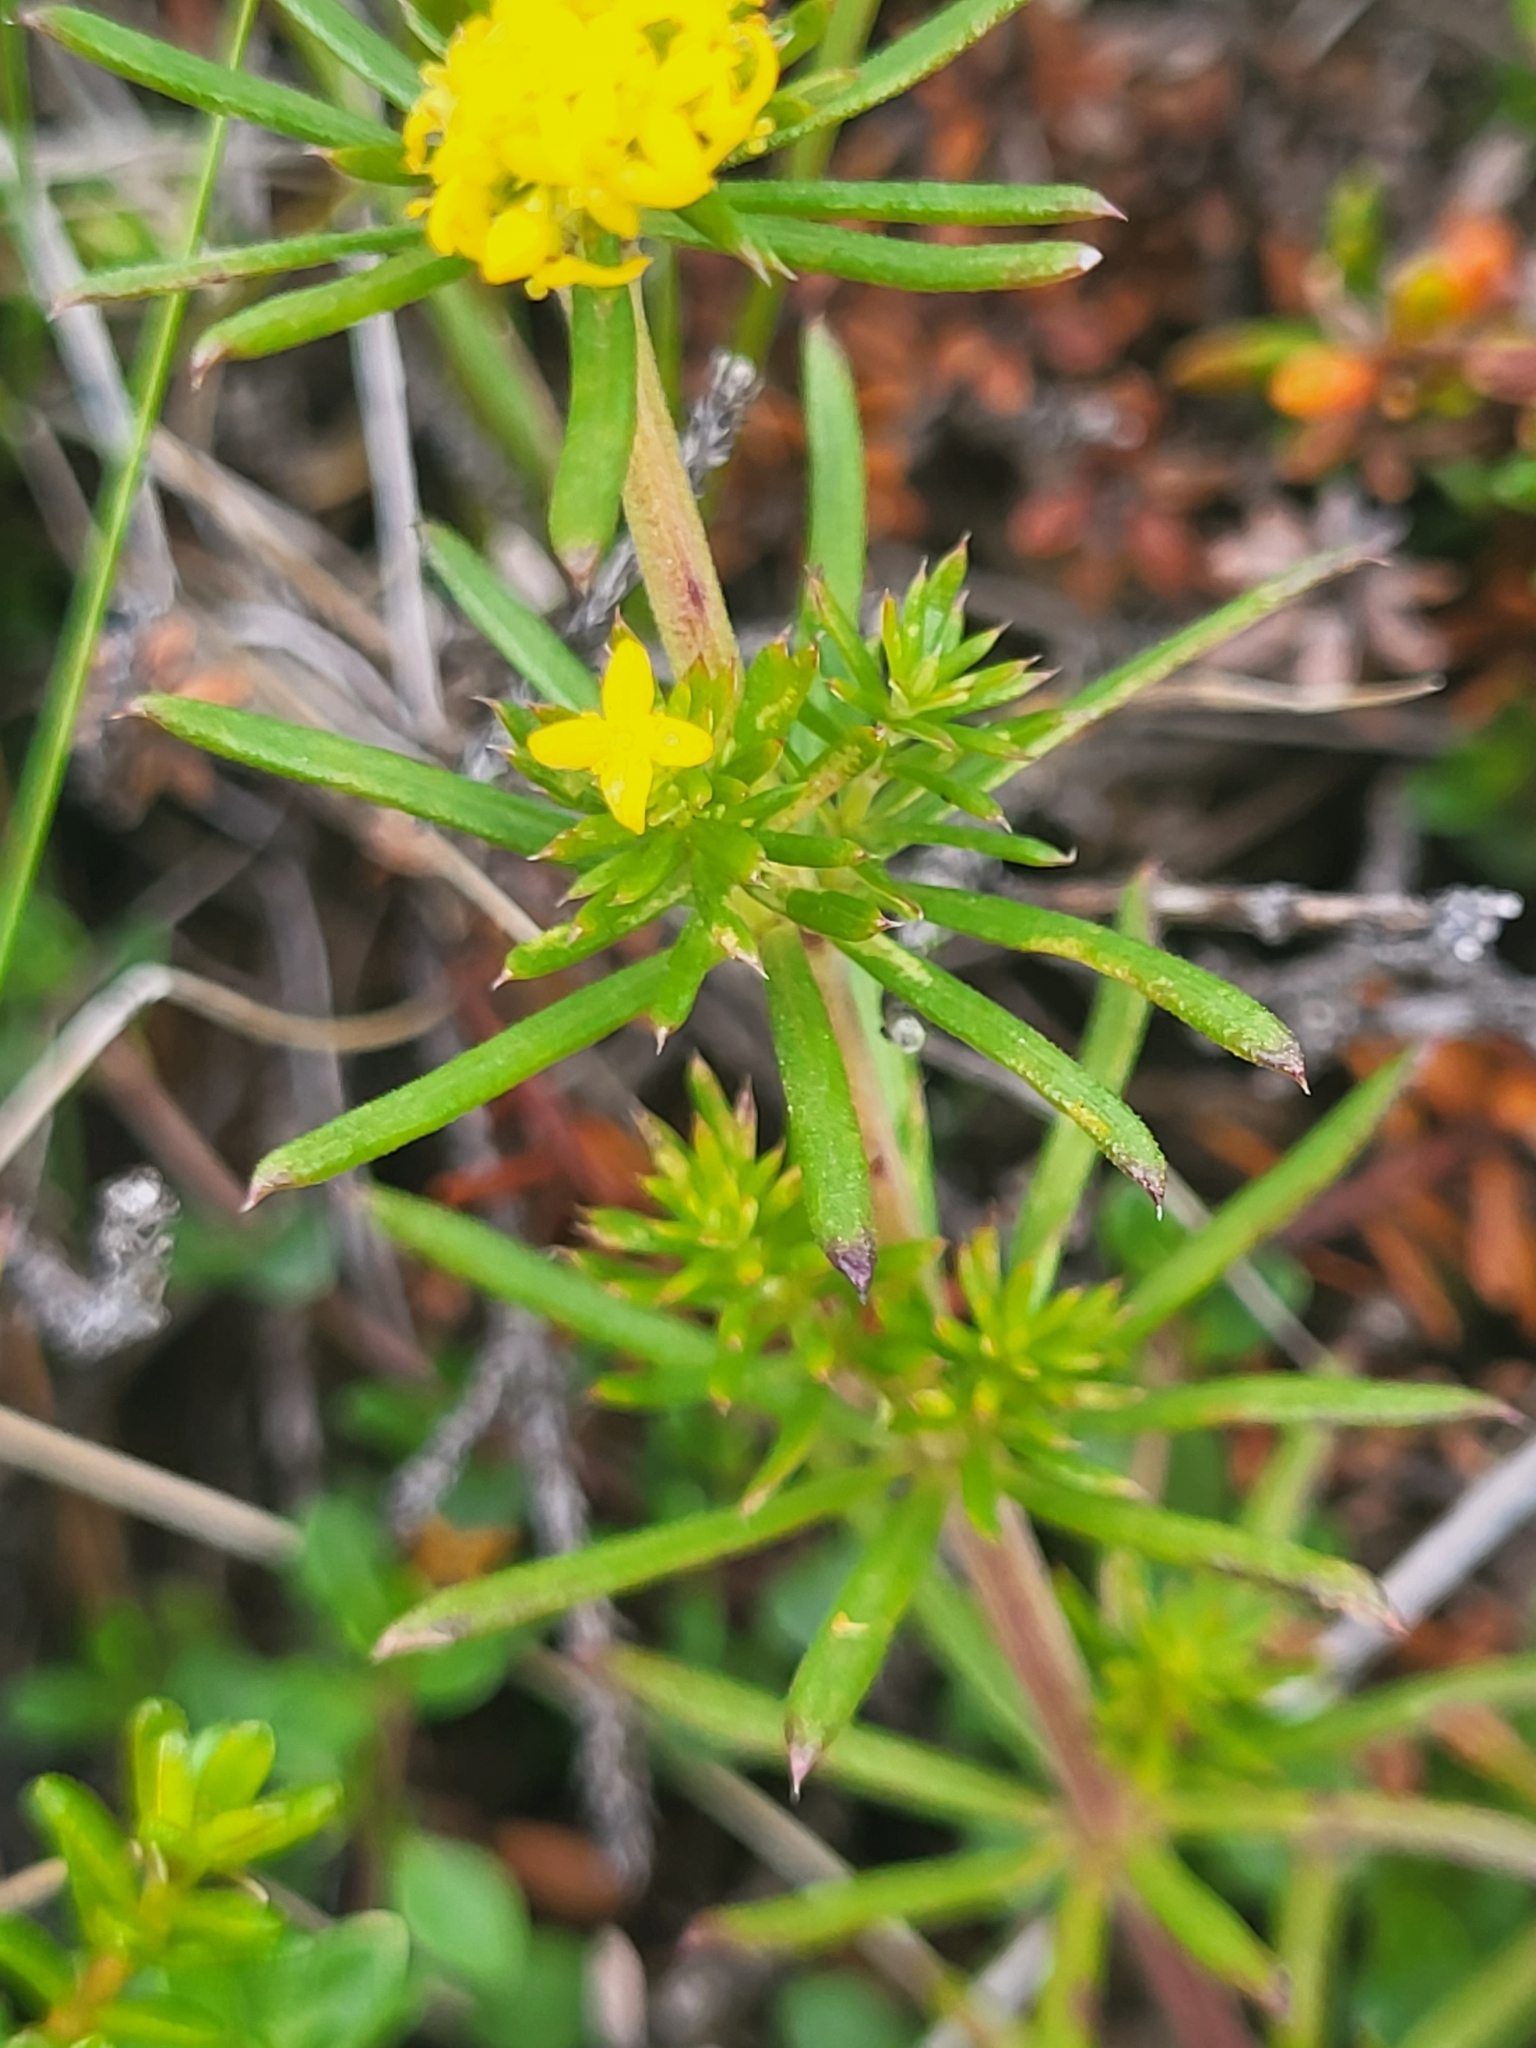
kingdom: Plantae
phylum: Tracheophyta
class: Magnoliopsida
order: Gentianales
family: Rubiaceae
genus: Galium
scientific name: Galium verum
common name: Lady's bedstraw
